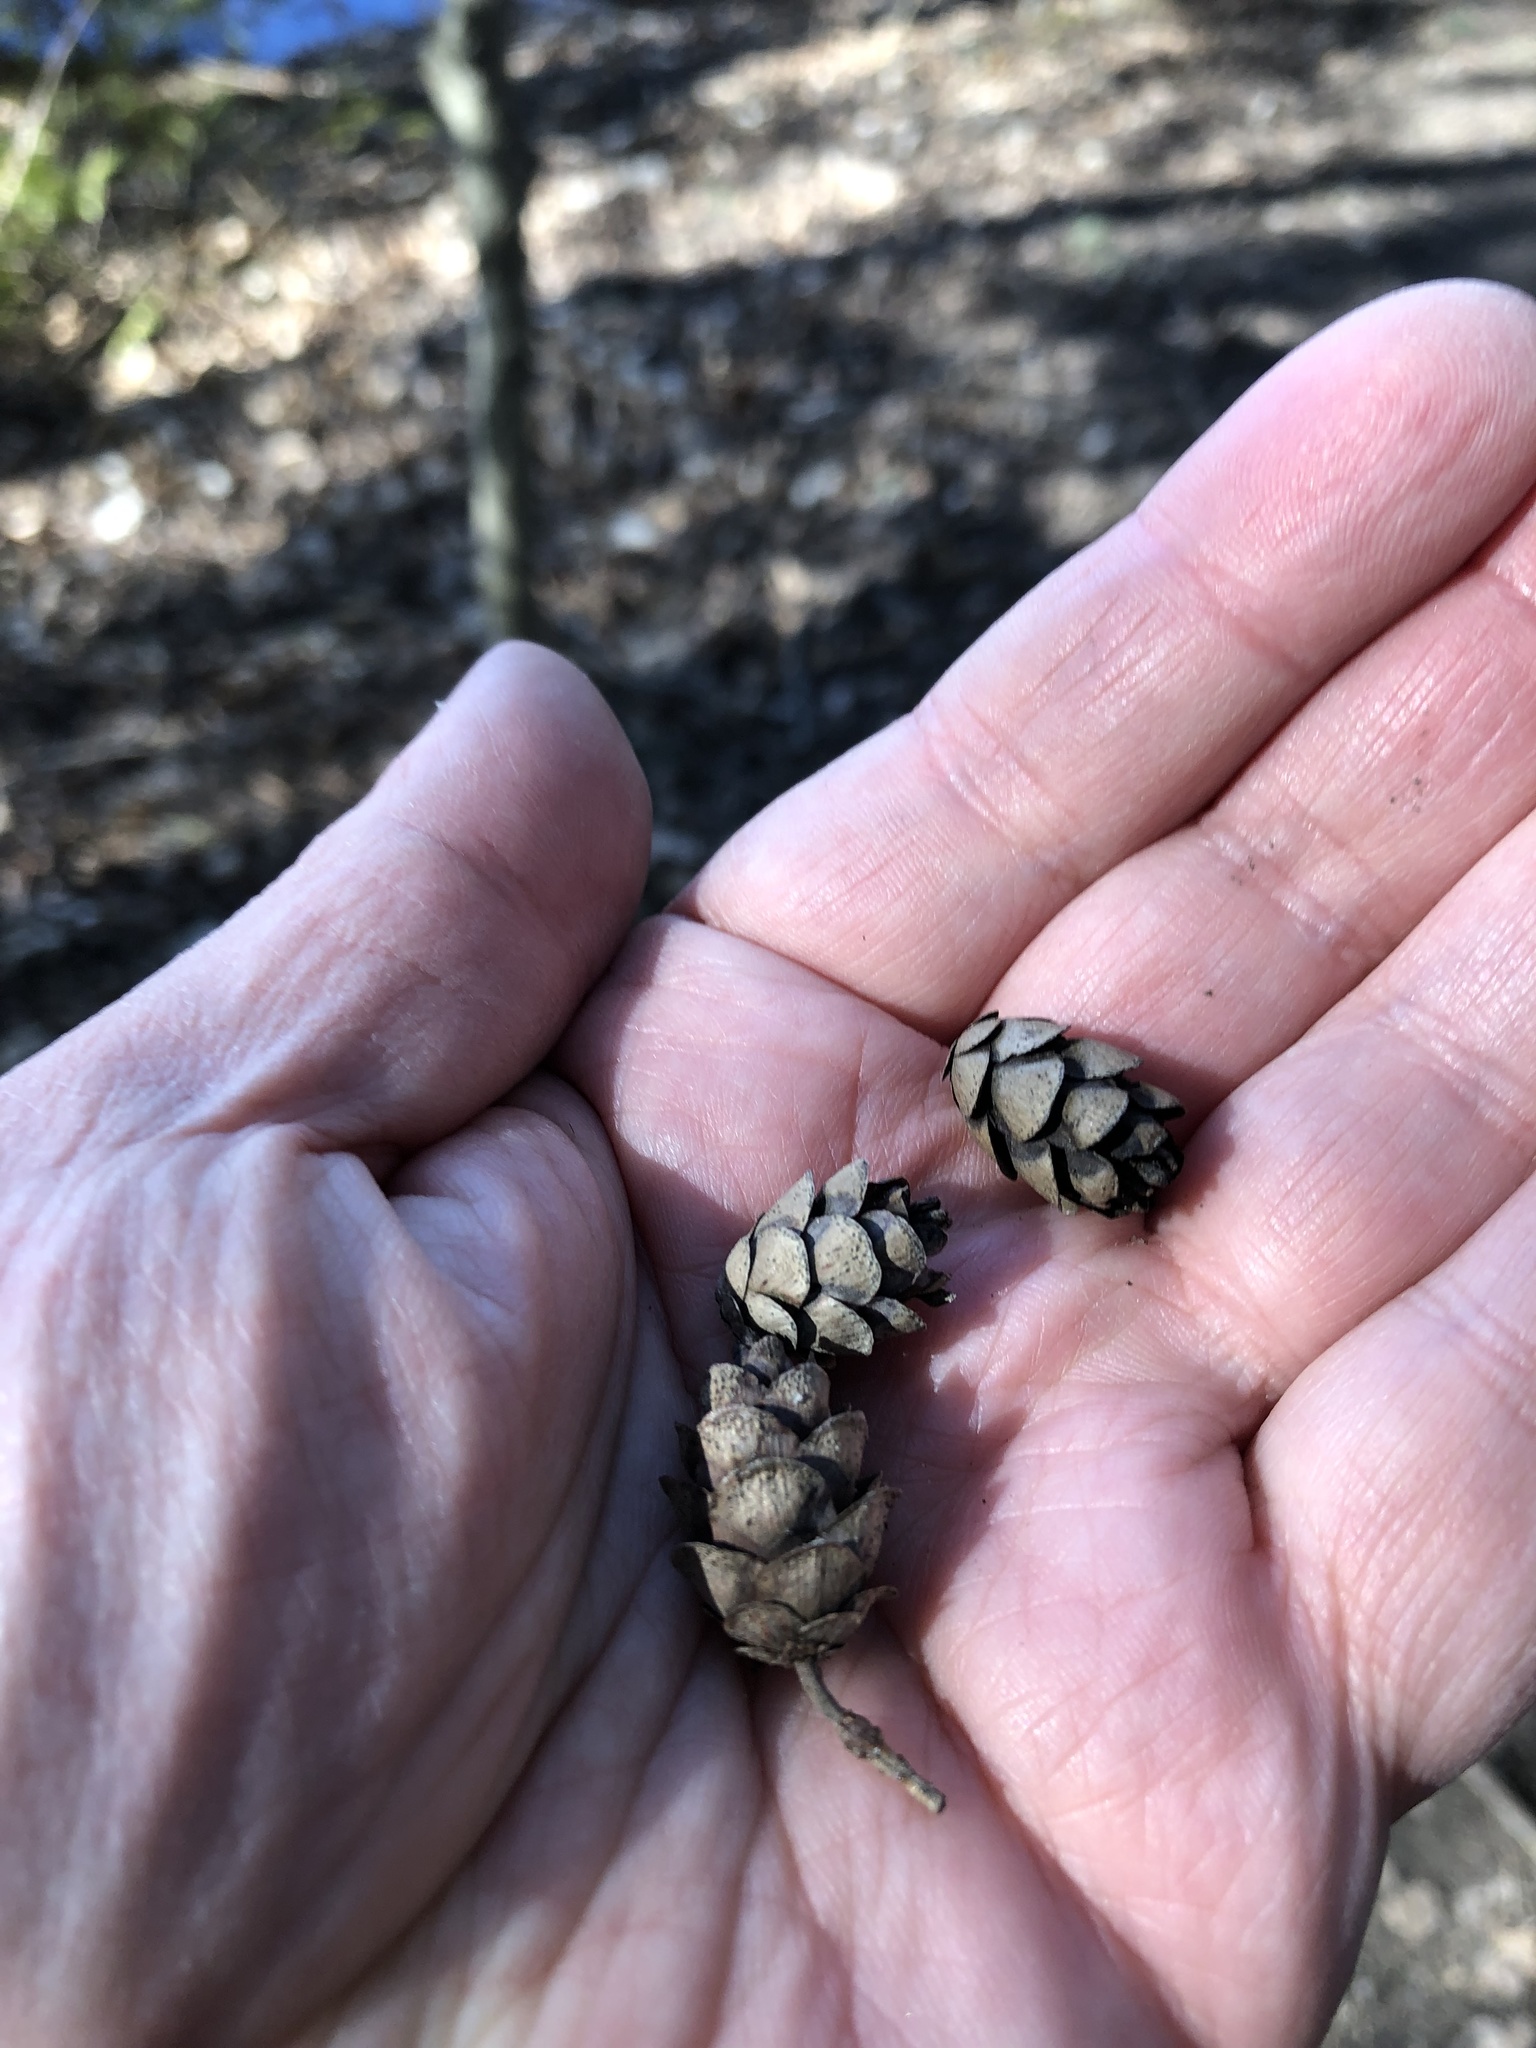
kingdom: Plantae
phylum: Tracheophyta
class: Pinopsida
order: Pinales
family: Pinaceae
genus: Tsuga
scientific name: Tsuga canadensis
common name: Eastern hemlock
